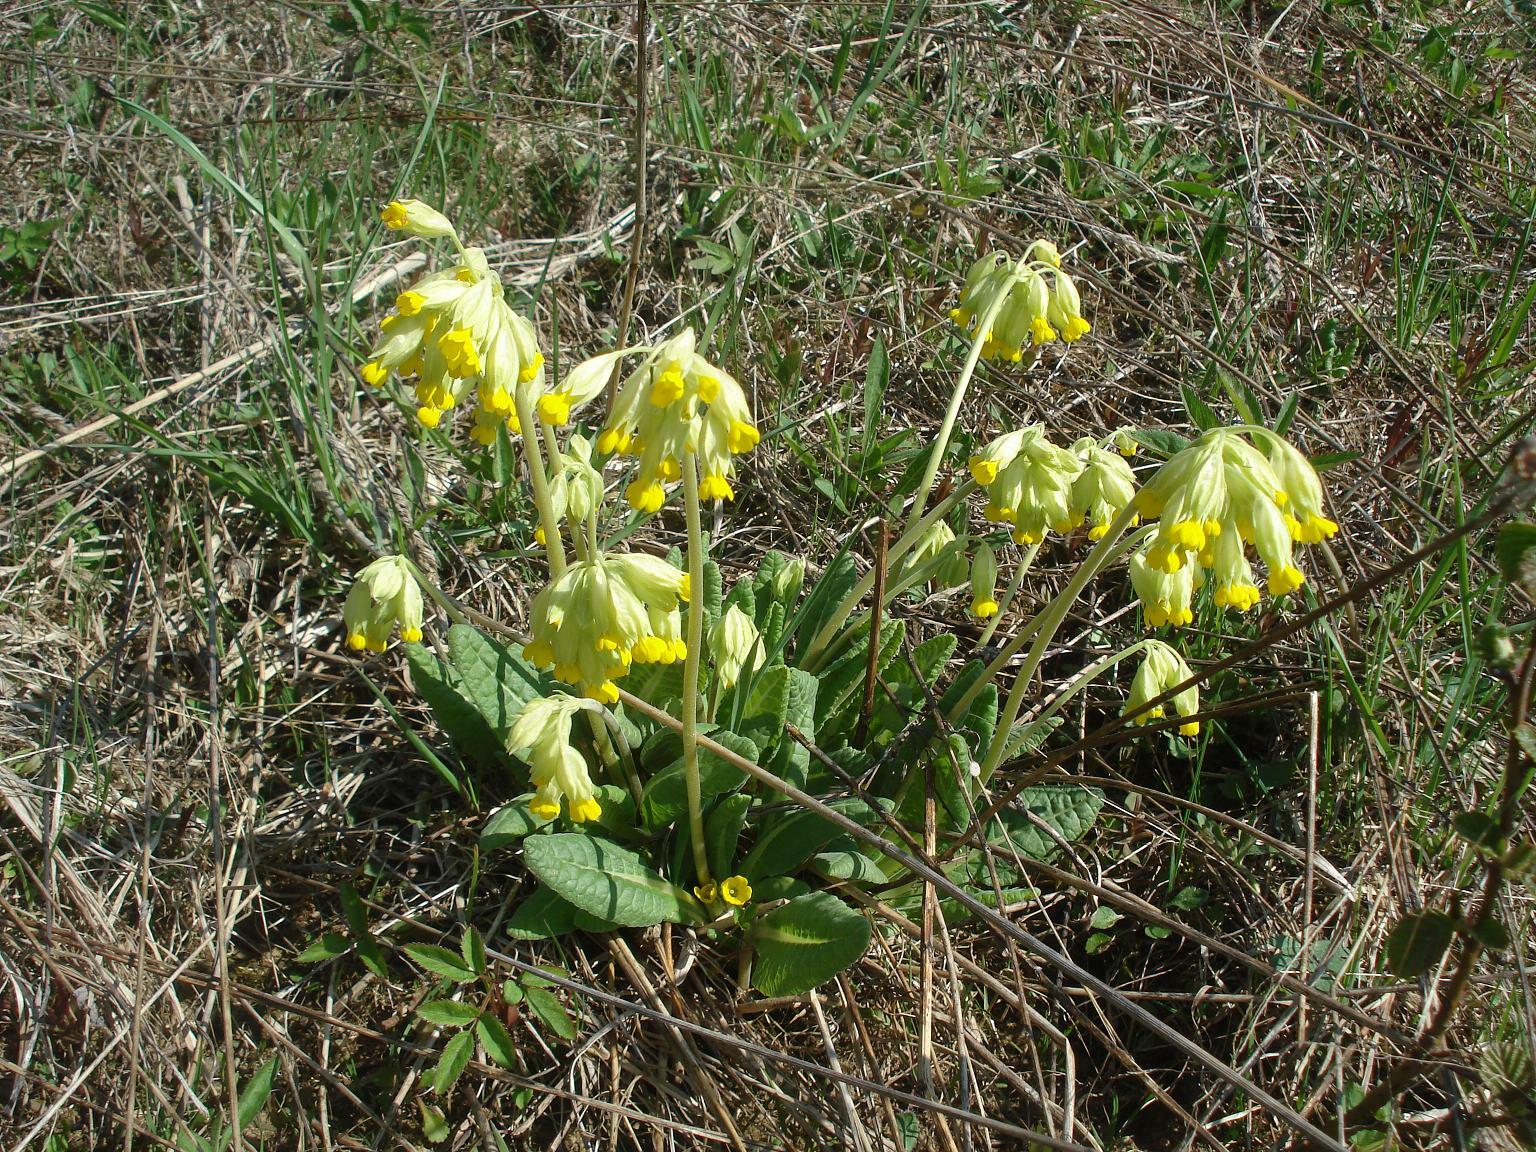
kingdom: Plantae
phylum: Tracheophyta
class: Magnoliopsida
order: Ericales
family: Primulaceae
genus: Primula
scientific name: Primula veris
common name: Cowslip
